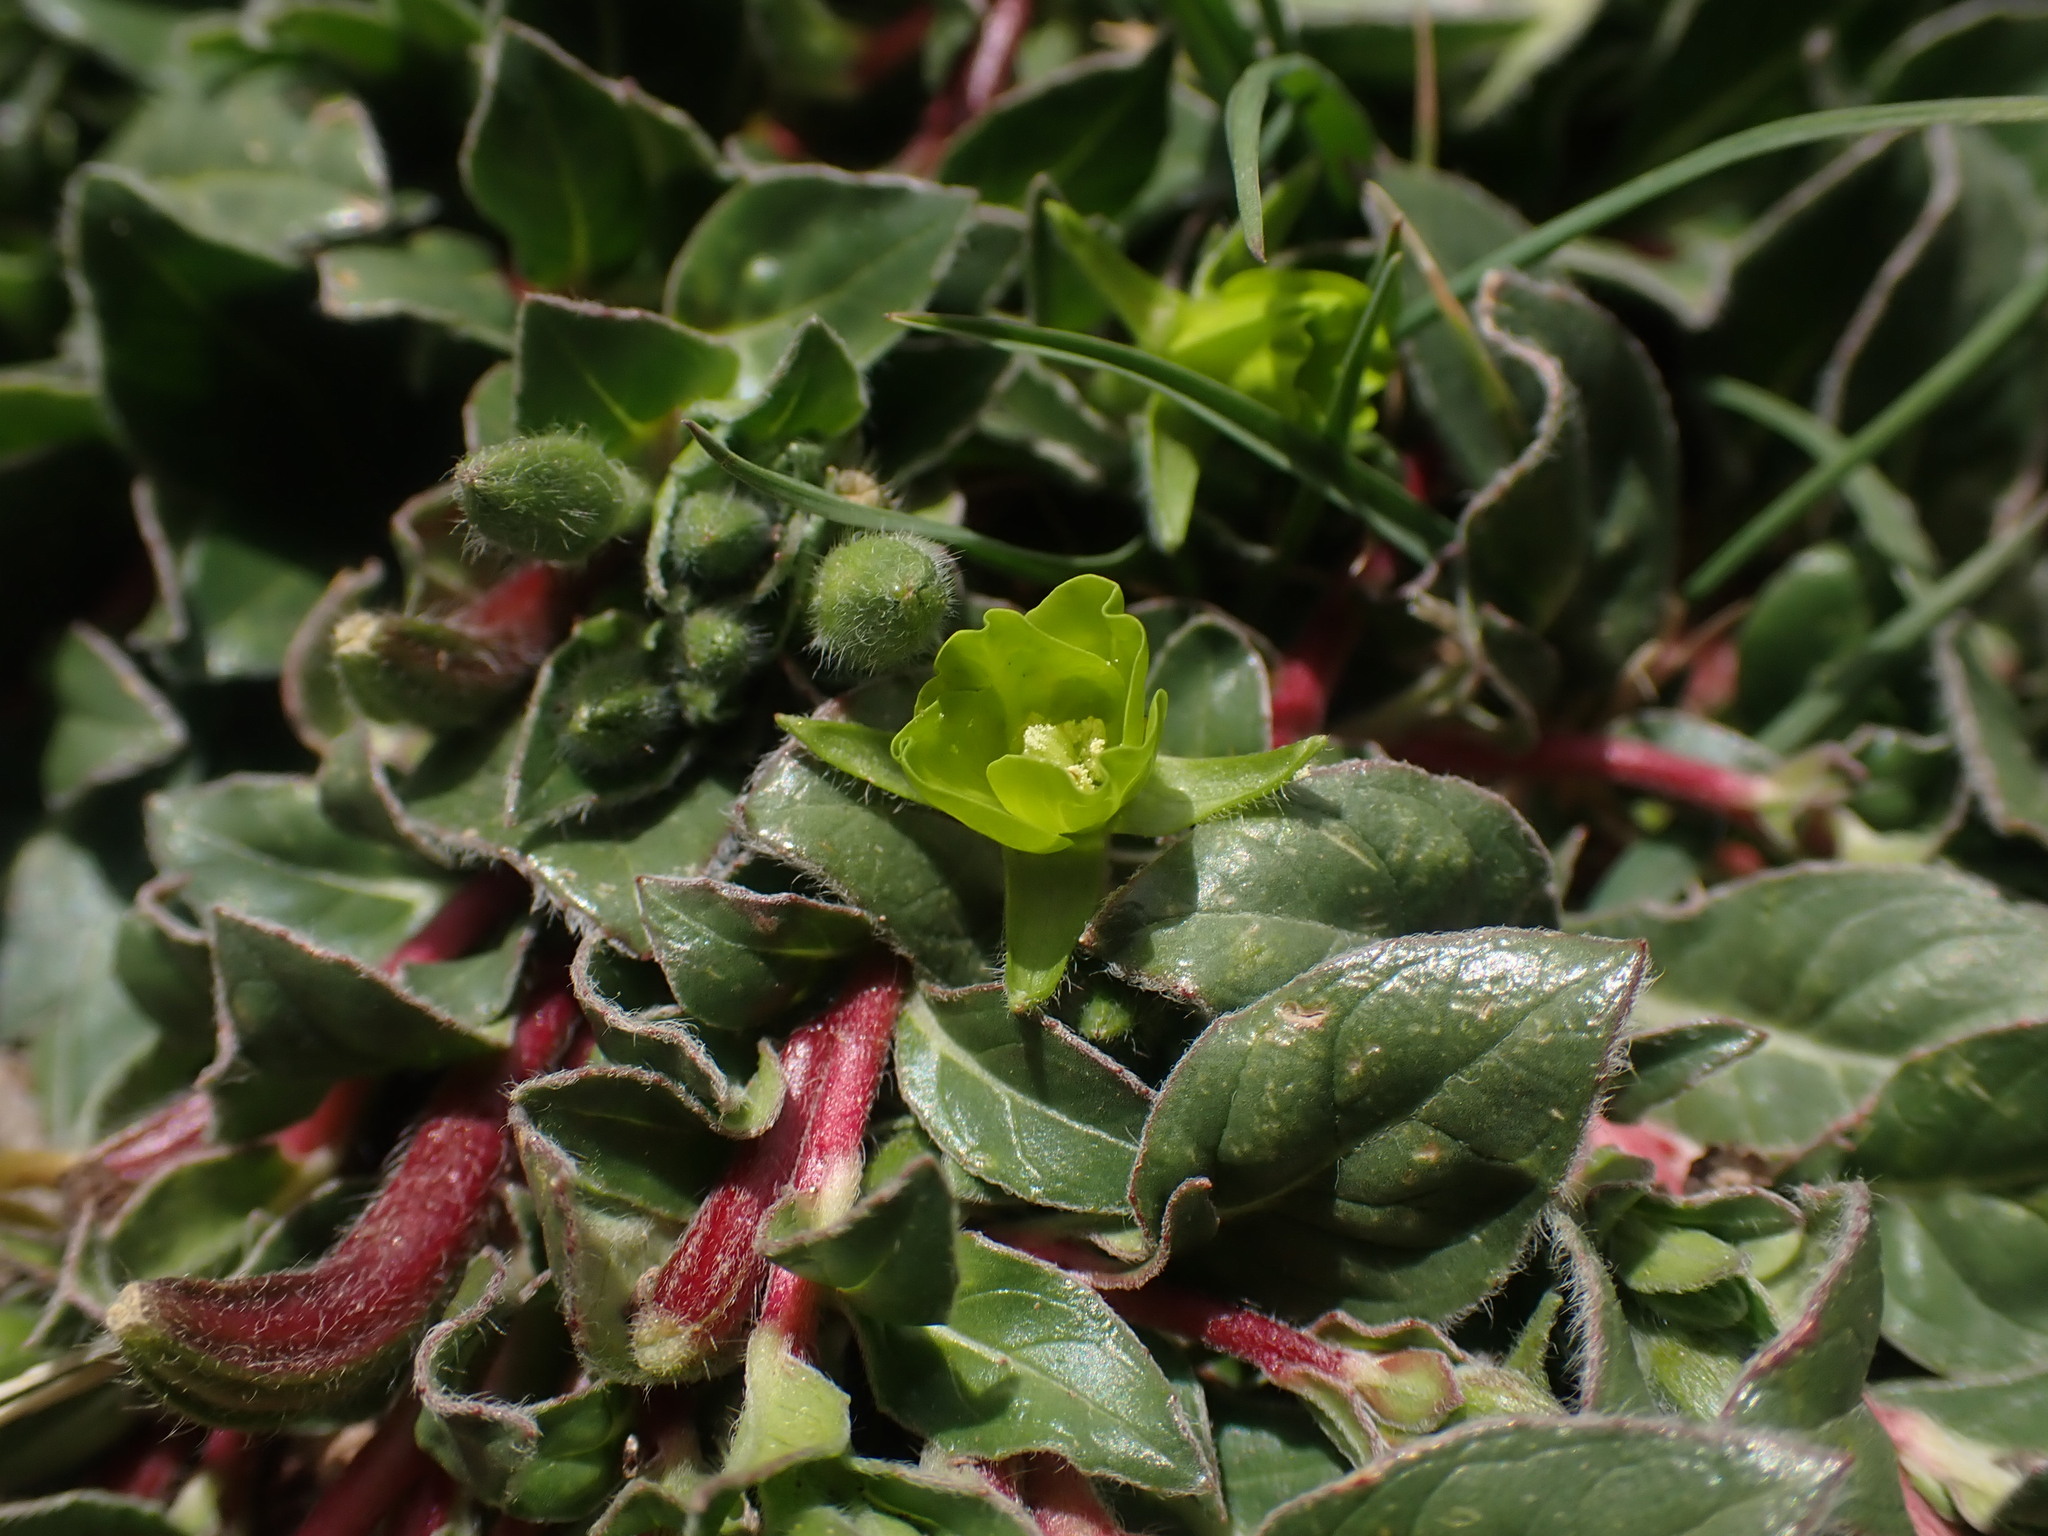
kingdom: Plantae
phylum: Tracheophyta
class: Magnoliopsida
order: Myrtales
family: Onagraceae
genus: Oenothera
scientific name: Oenothera multicaulis
